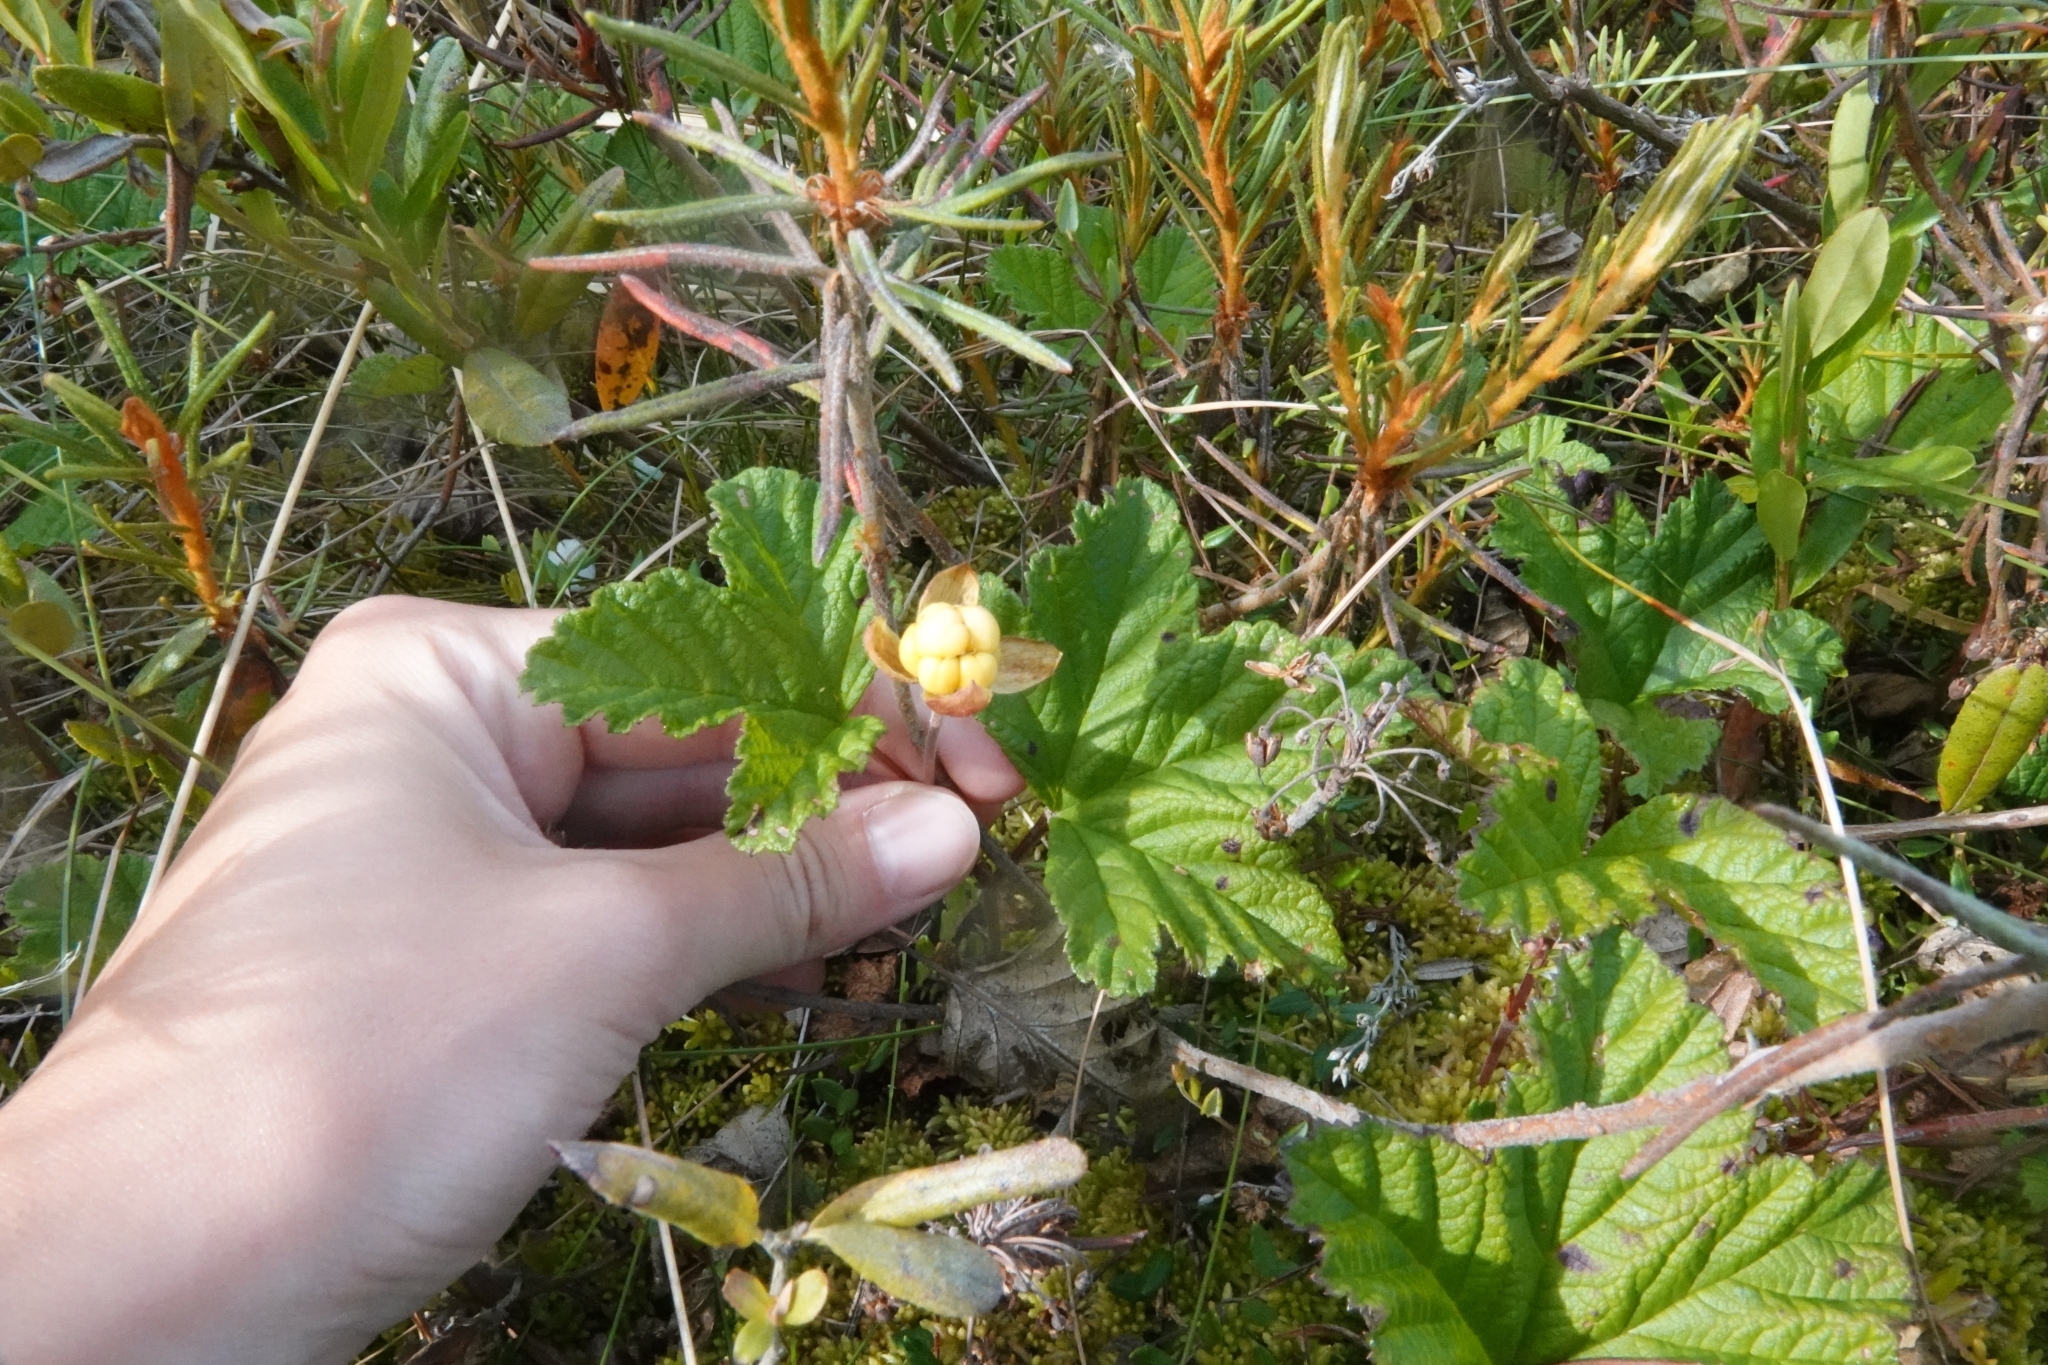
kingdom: Plantae
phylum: Tracheophyta
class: Magnoliopsida
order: Rosales
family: Rosaceae
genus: Rubus
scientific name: Rubus chamaemorus
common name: Cloudberry
